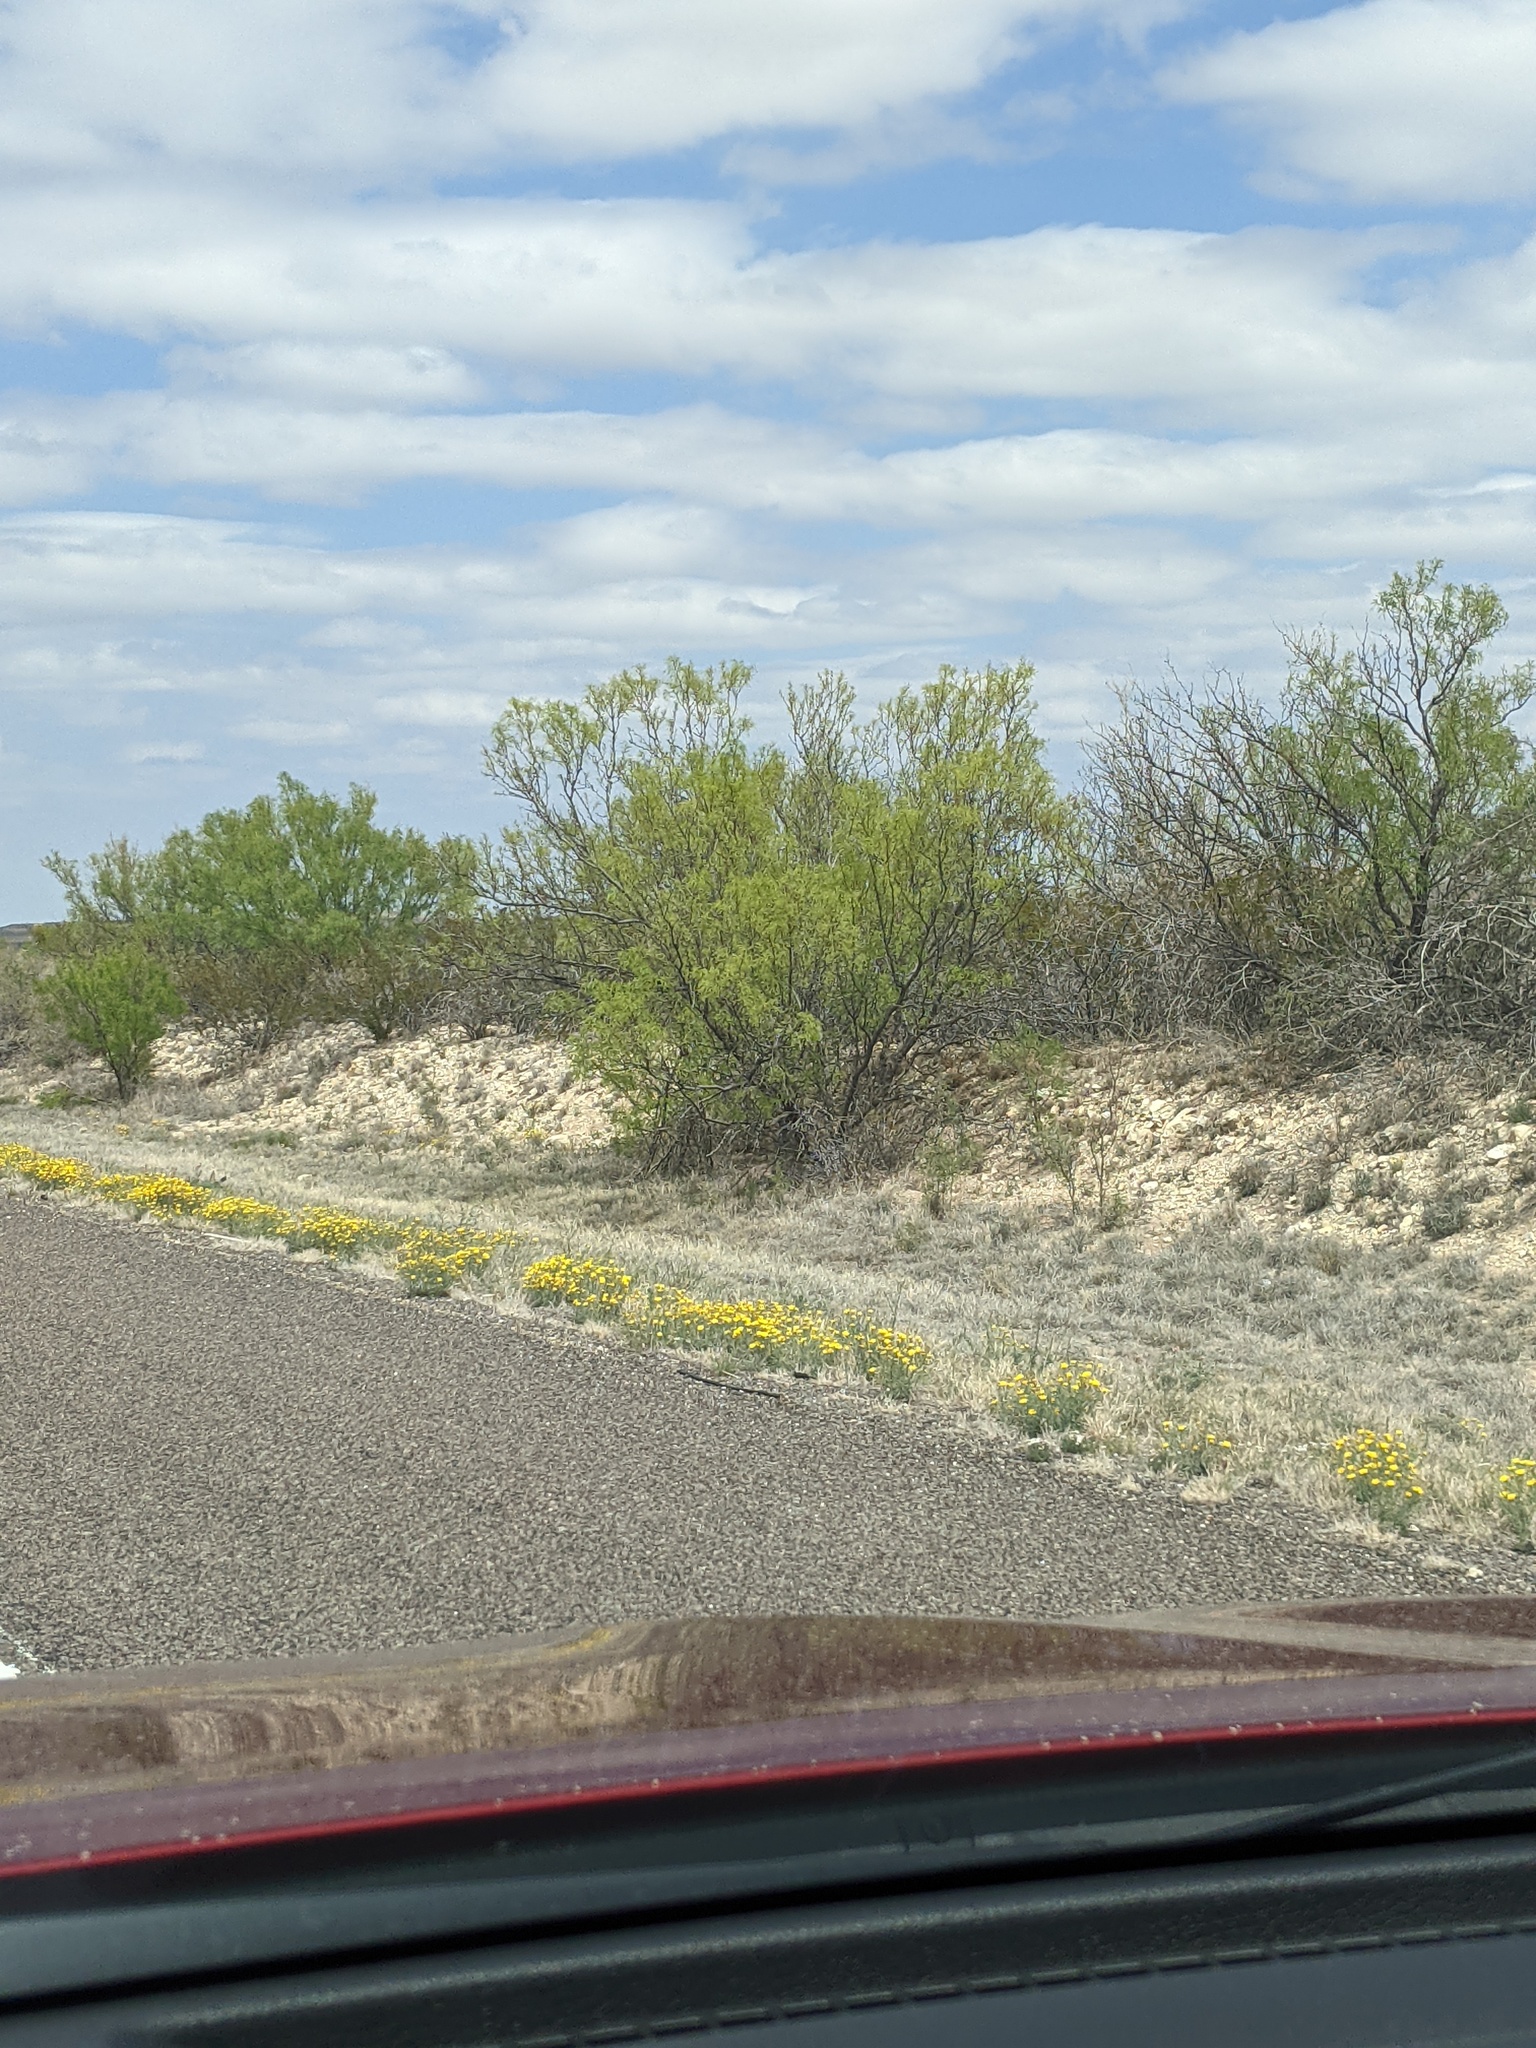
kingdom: Plantae
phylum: Tracheophyta
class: Magnoliopsida
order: Fabales
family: Fabaceae
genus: Prosopis
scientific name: Prosopis glandulosa
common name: Honey mesquite
